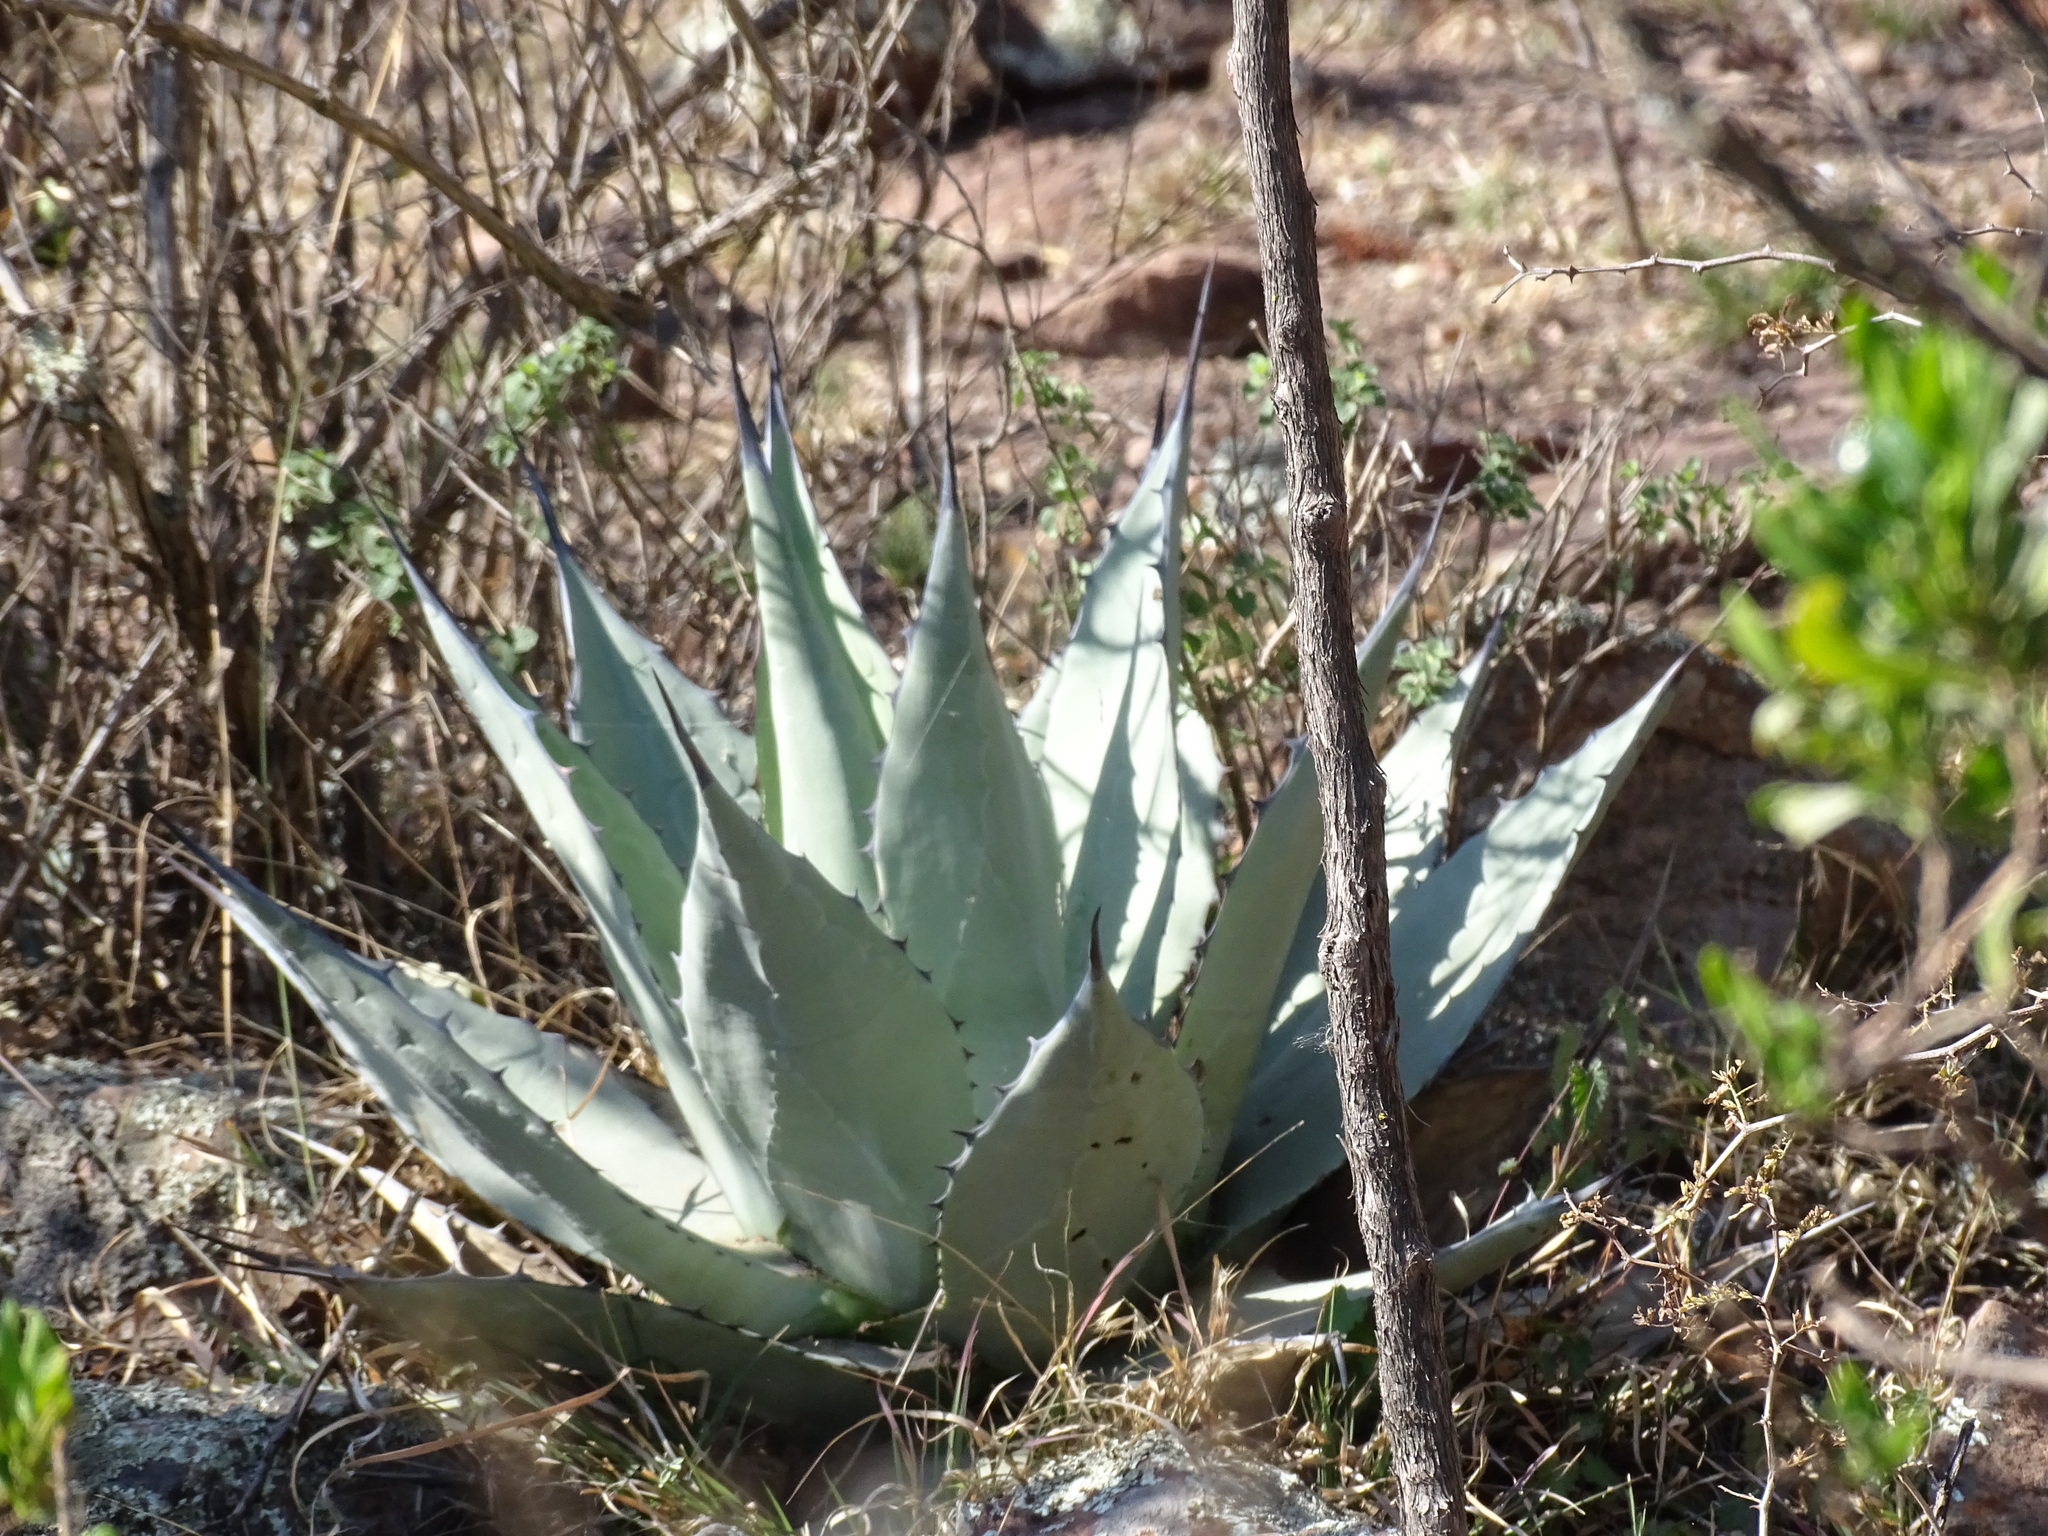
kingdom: Plantae
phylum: Tracheophyta
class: Liliopsida
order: Asparagales
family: Asparagaceae
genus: Agave
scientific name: Agave applanata
